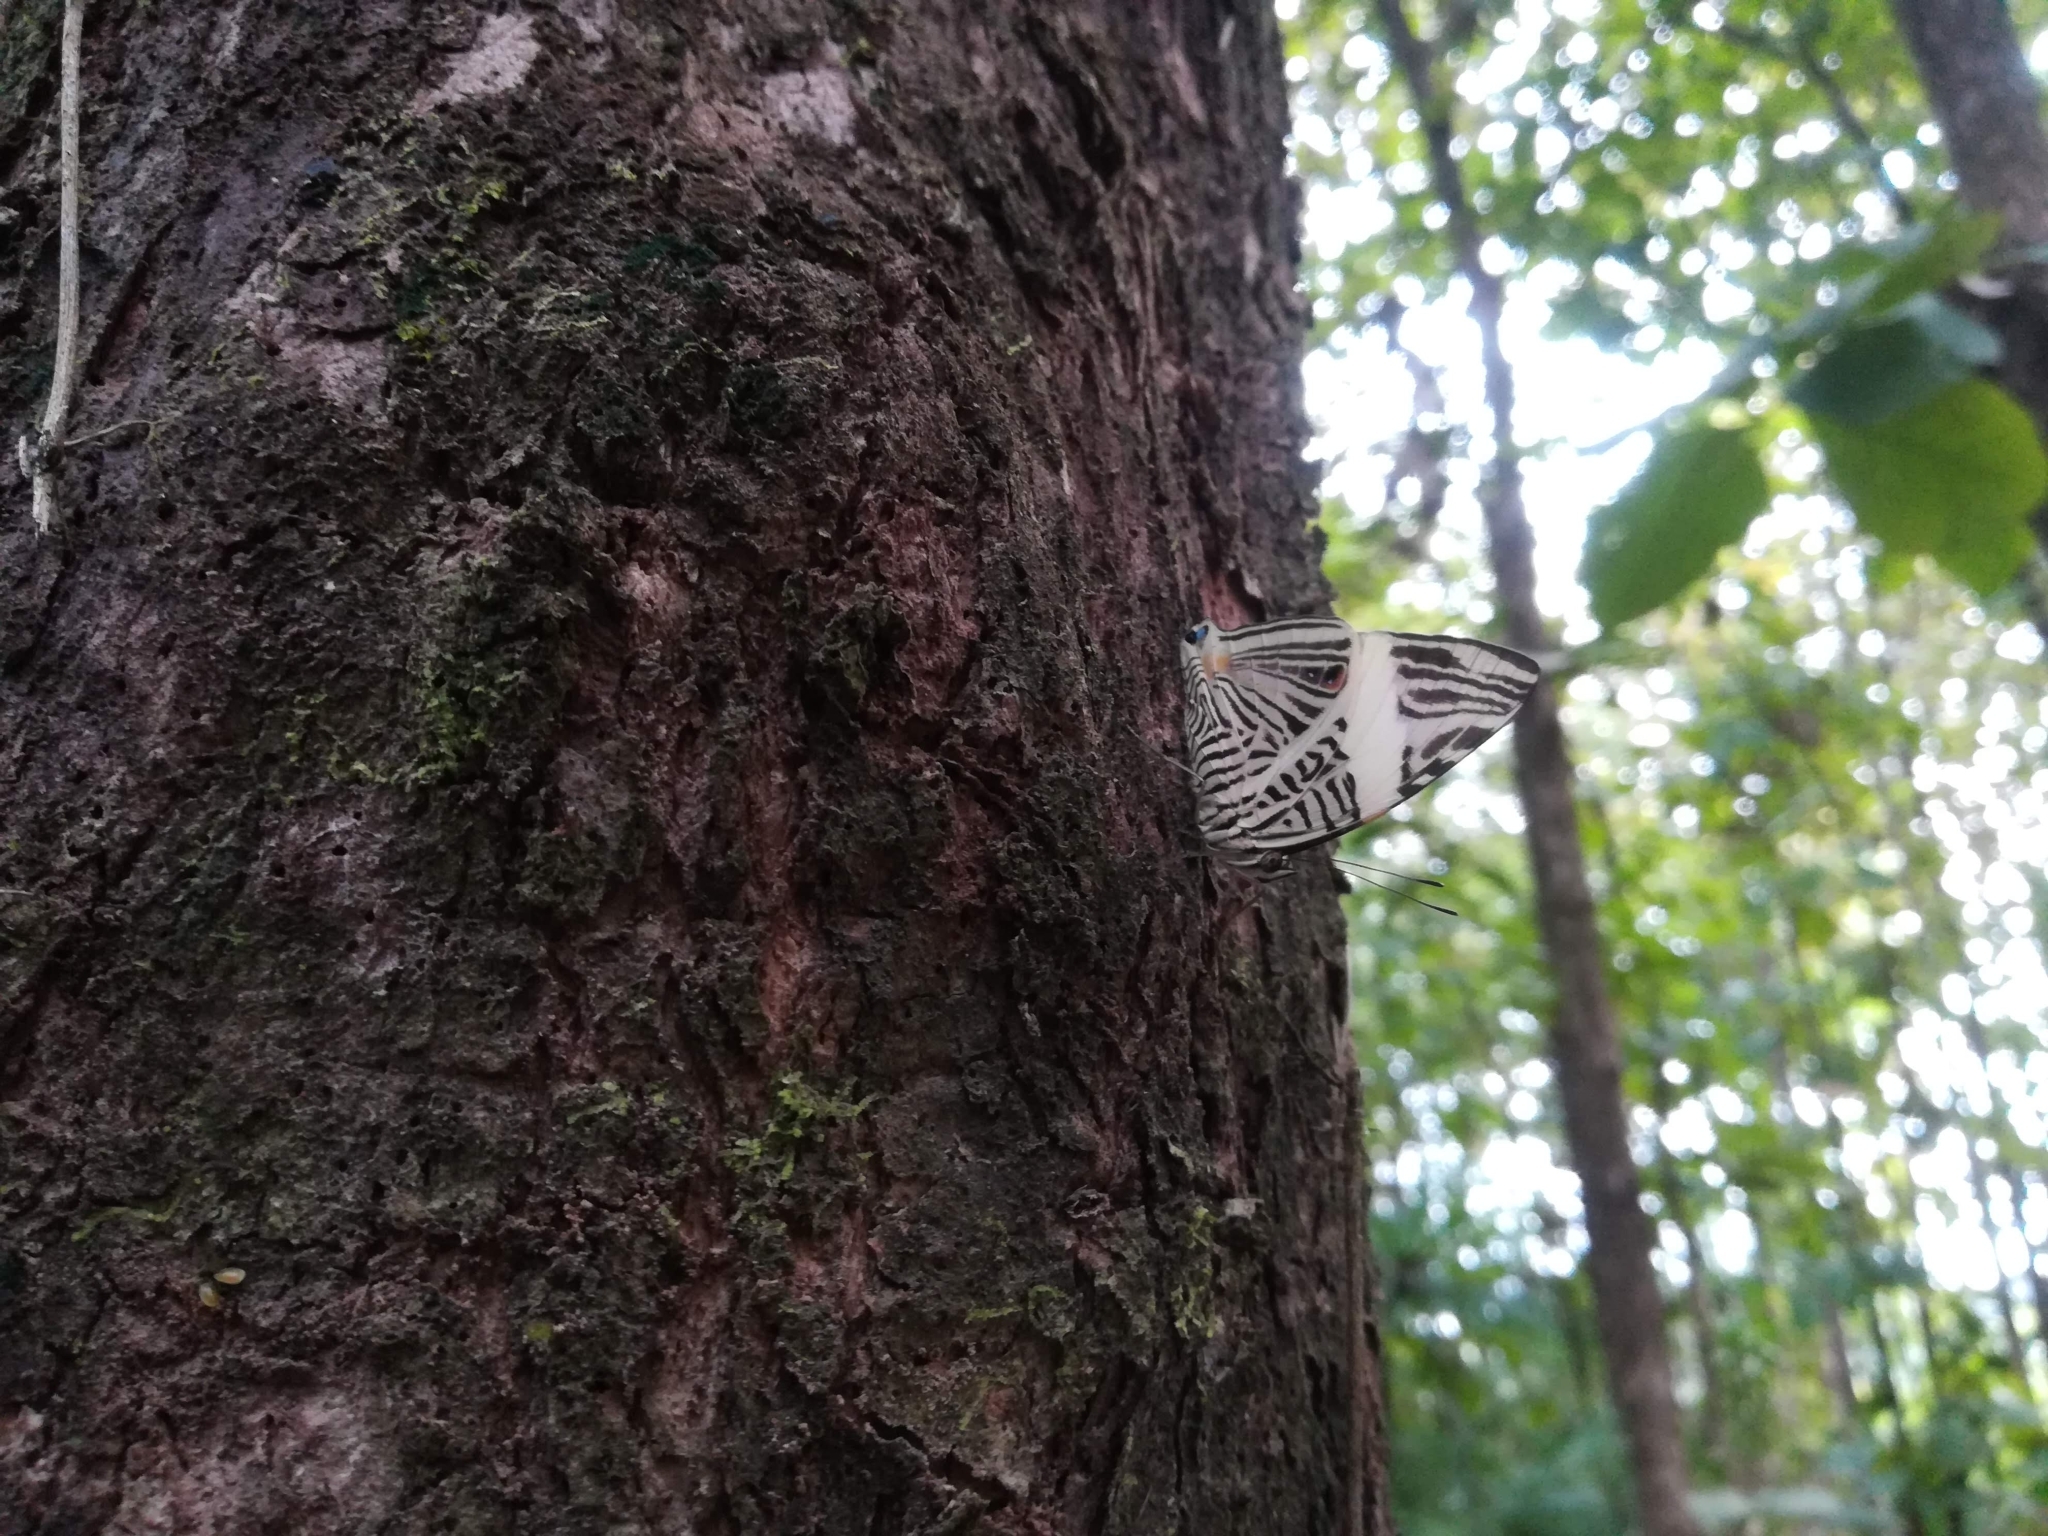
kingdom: Animalia
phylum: Arthropoda
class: Insecta
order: Lepidoptera
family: Nymphalidae
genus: Colobura
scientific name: Colobura dirce
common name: Dirce beauty
